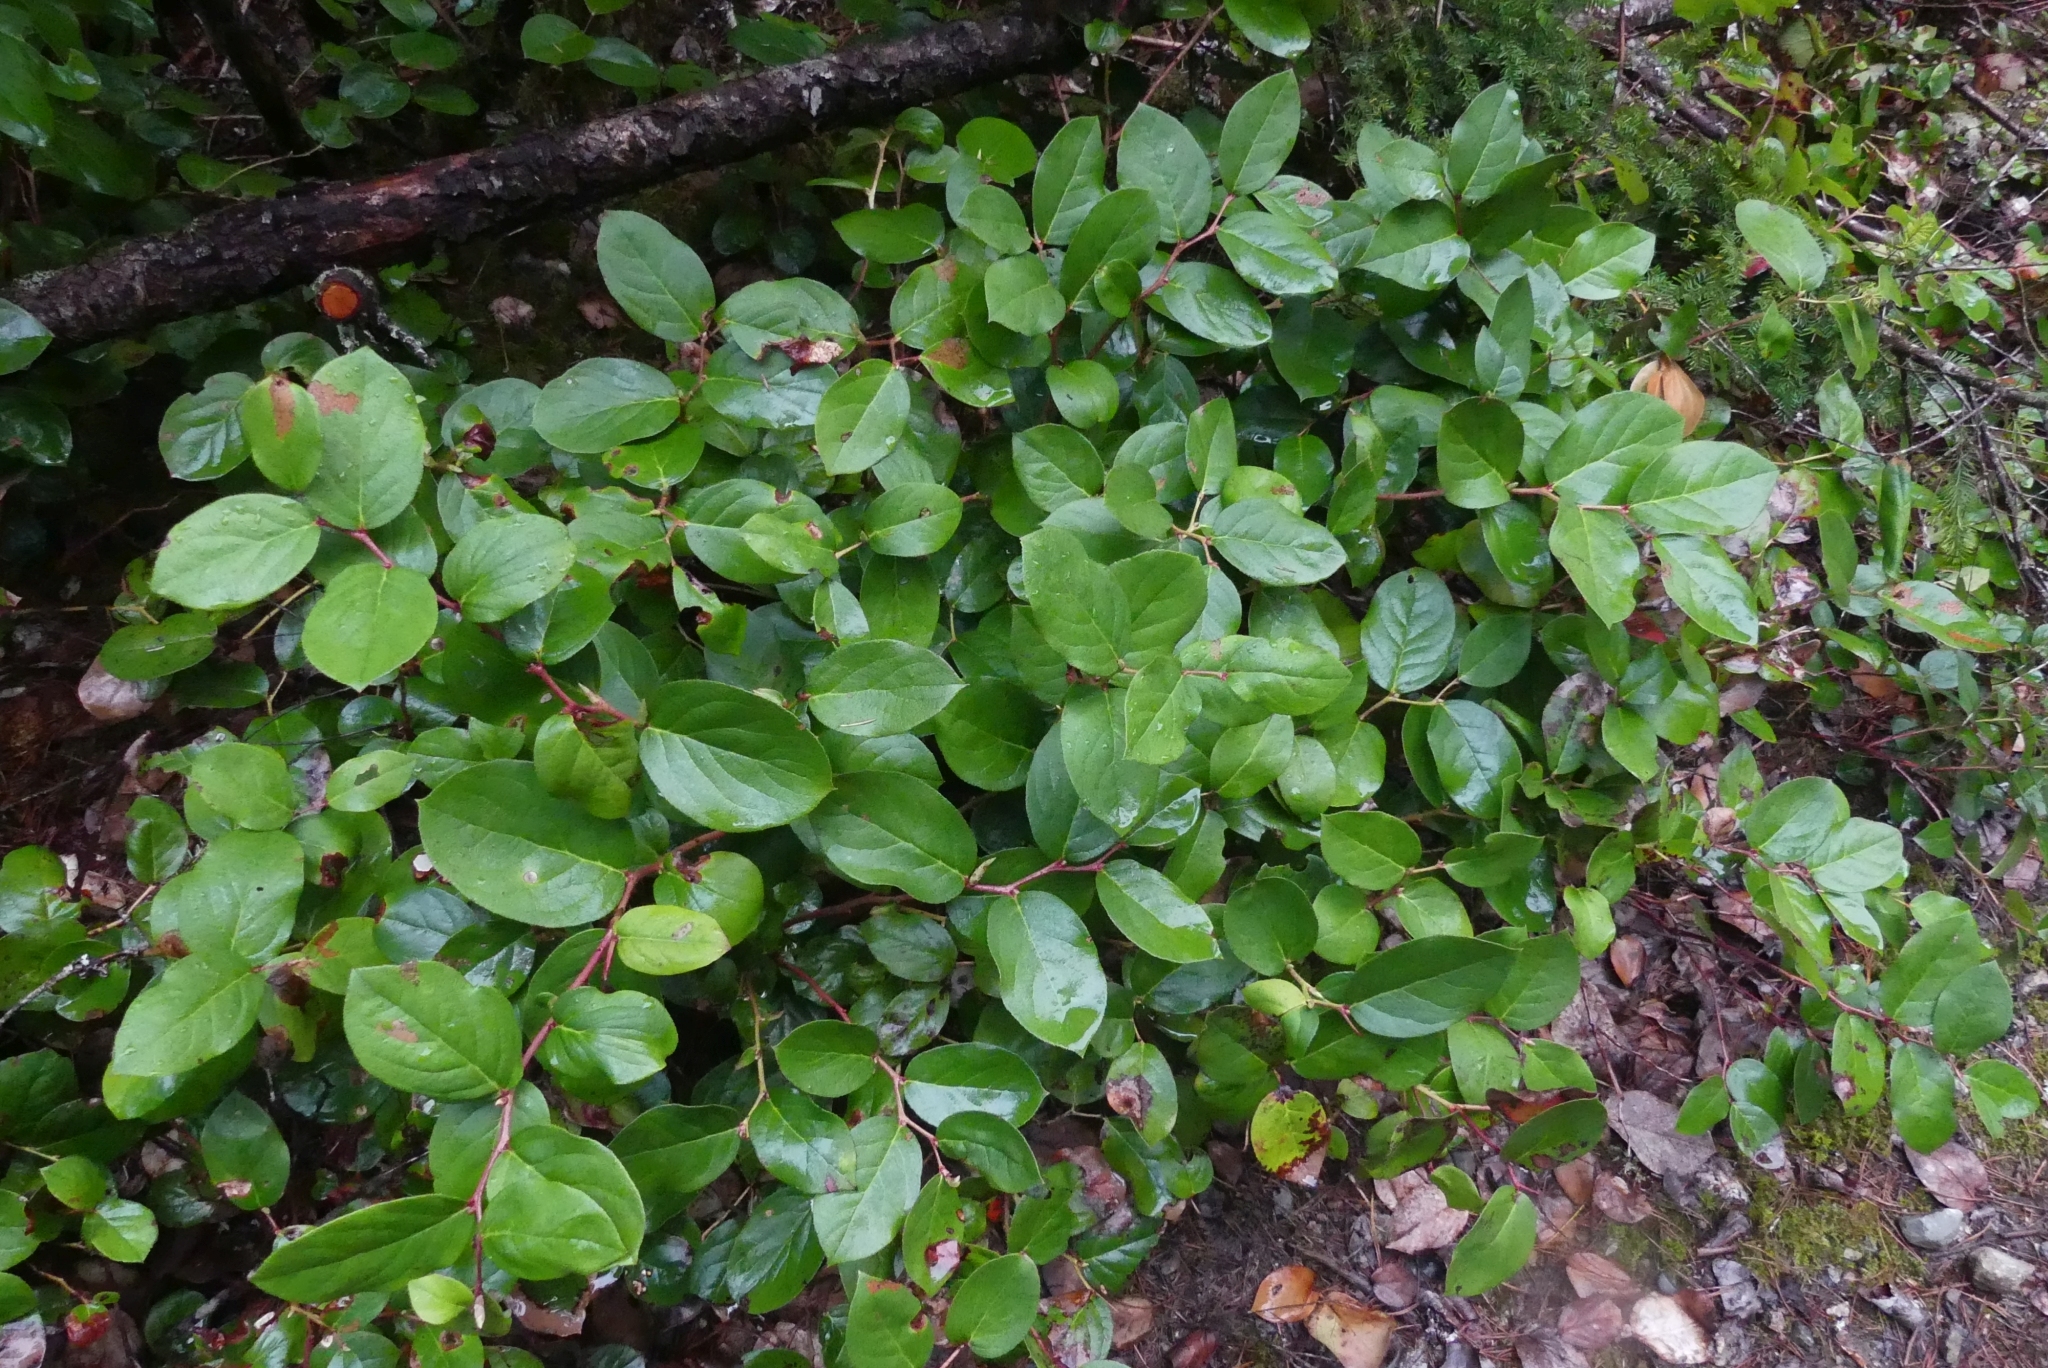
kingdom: Plantae
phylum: Tracheophyta
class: Magnoliopsida
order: Ericales
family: Ericaceae
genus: Gaultheria
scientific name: Gaultheria shallon
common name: Shallon
